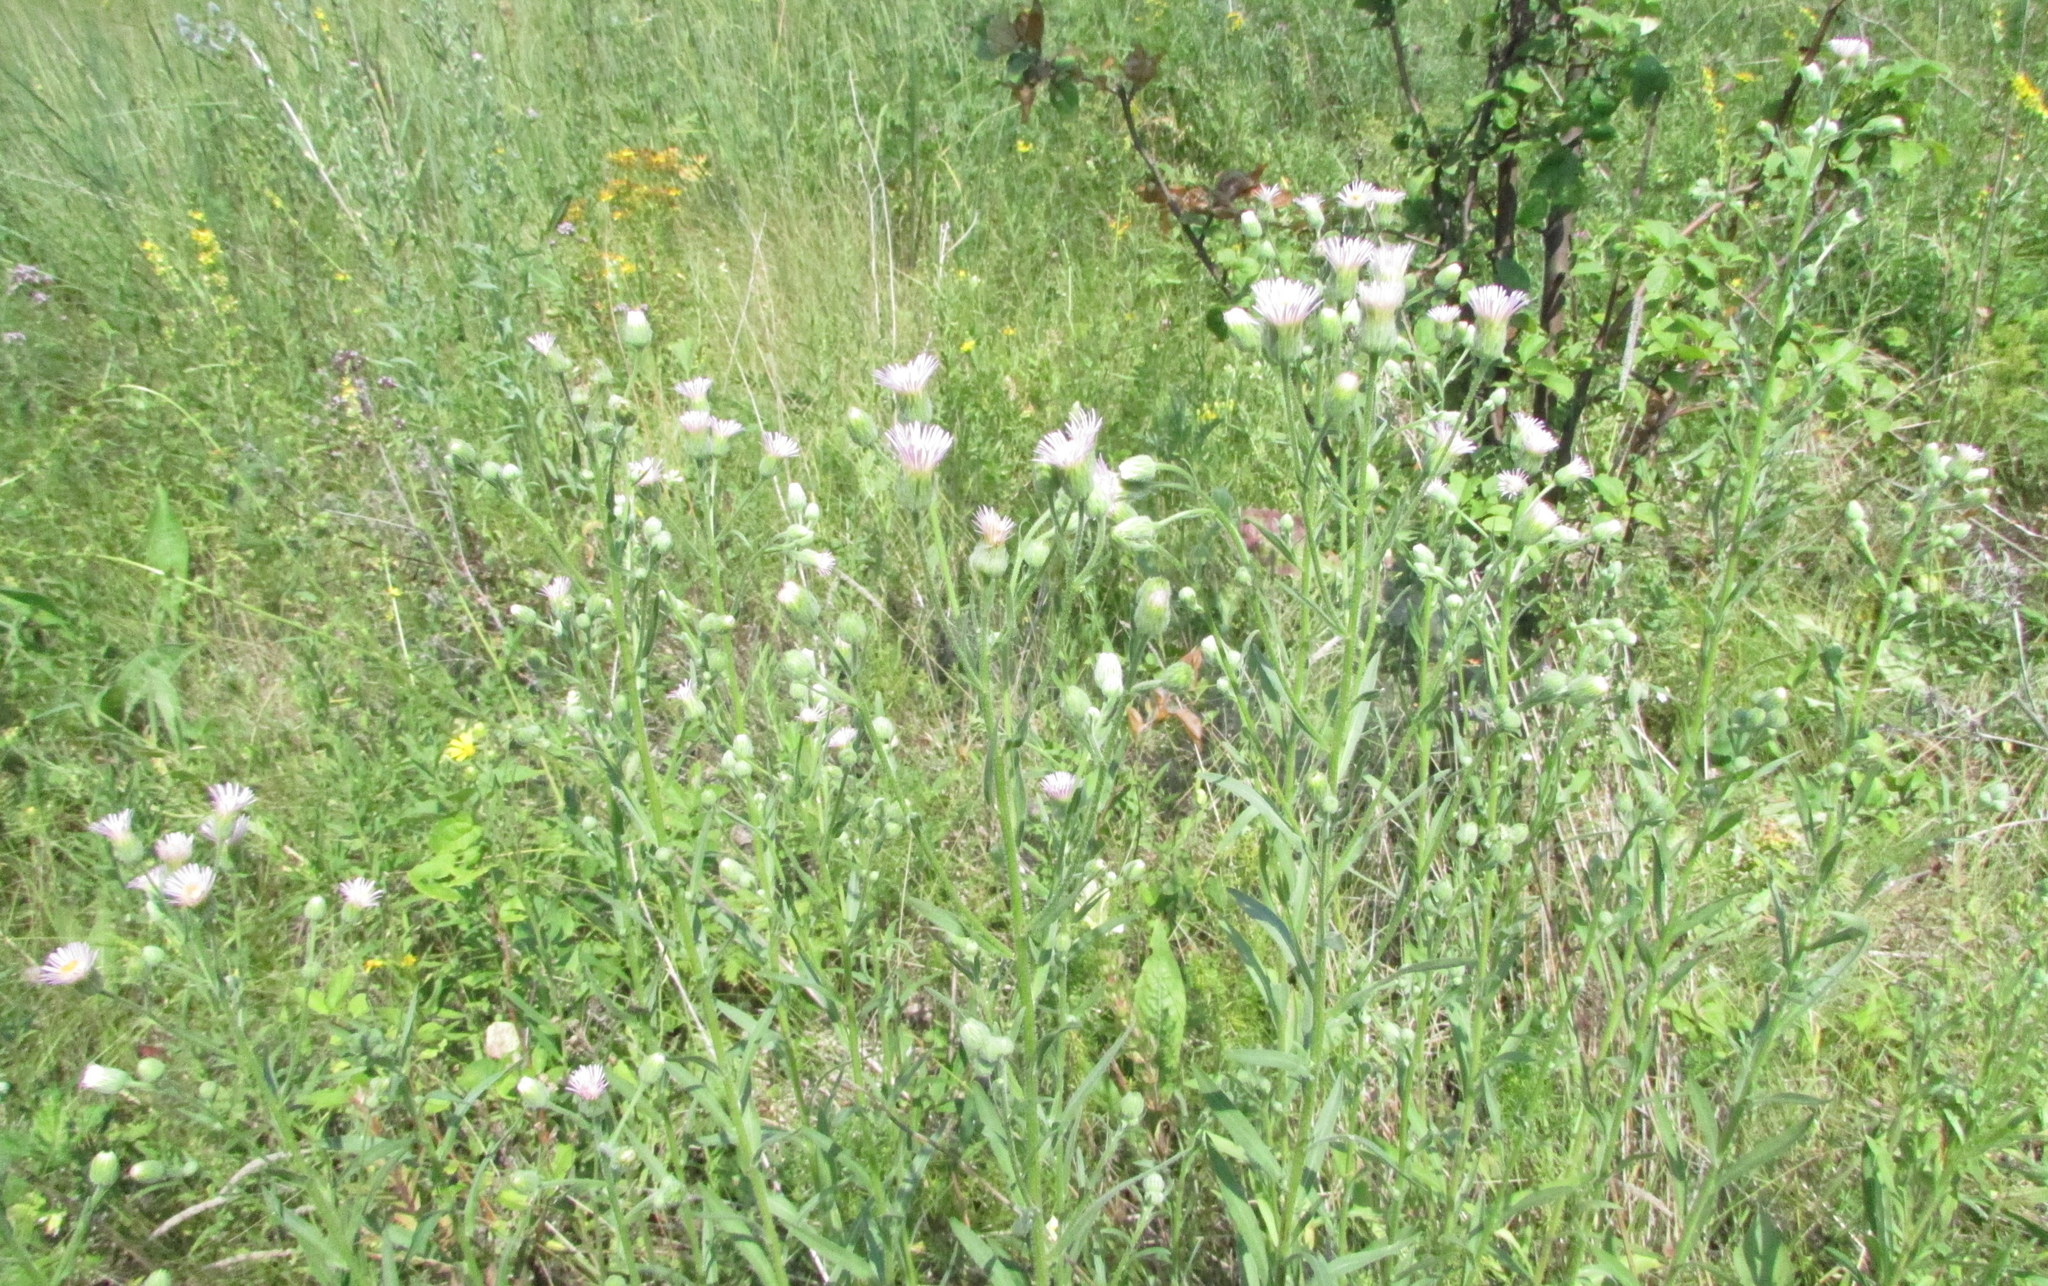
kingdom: Plantae
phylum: Tracheophyta
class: Magnoliopsida
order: Asterales
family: Asteraceae
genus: Erigeron
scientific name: Erigeron podolicus
